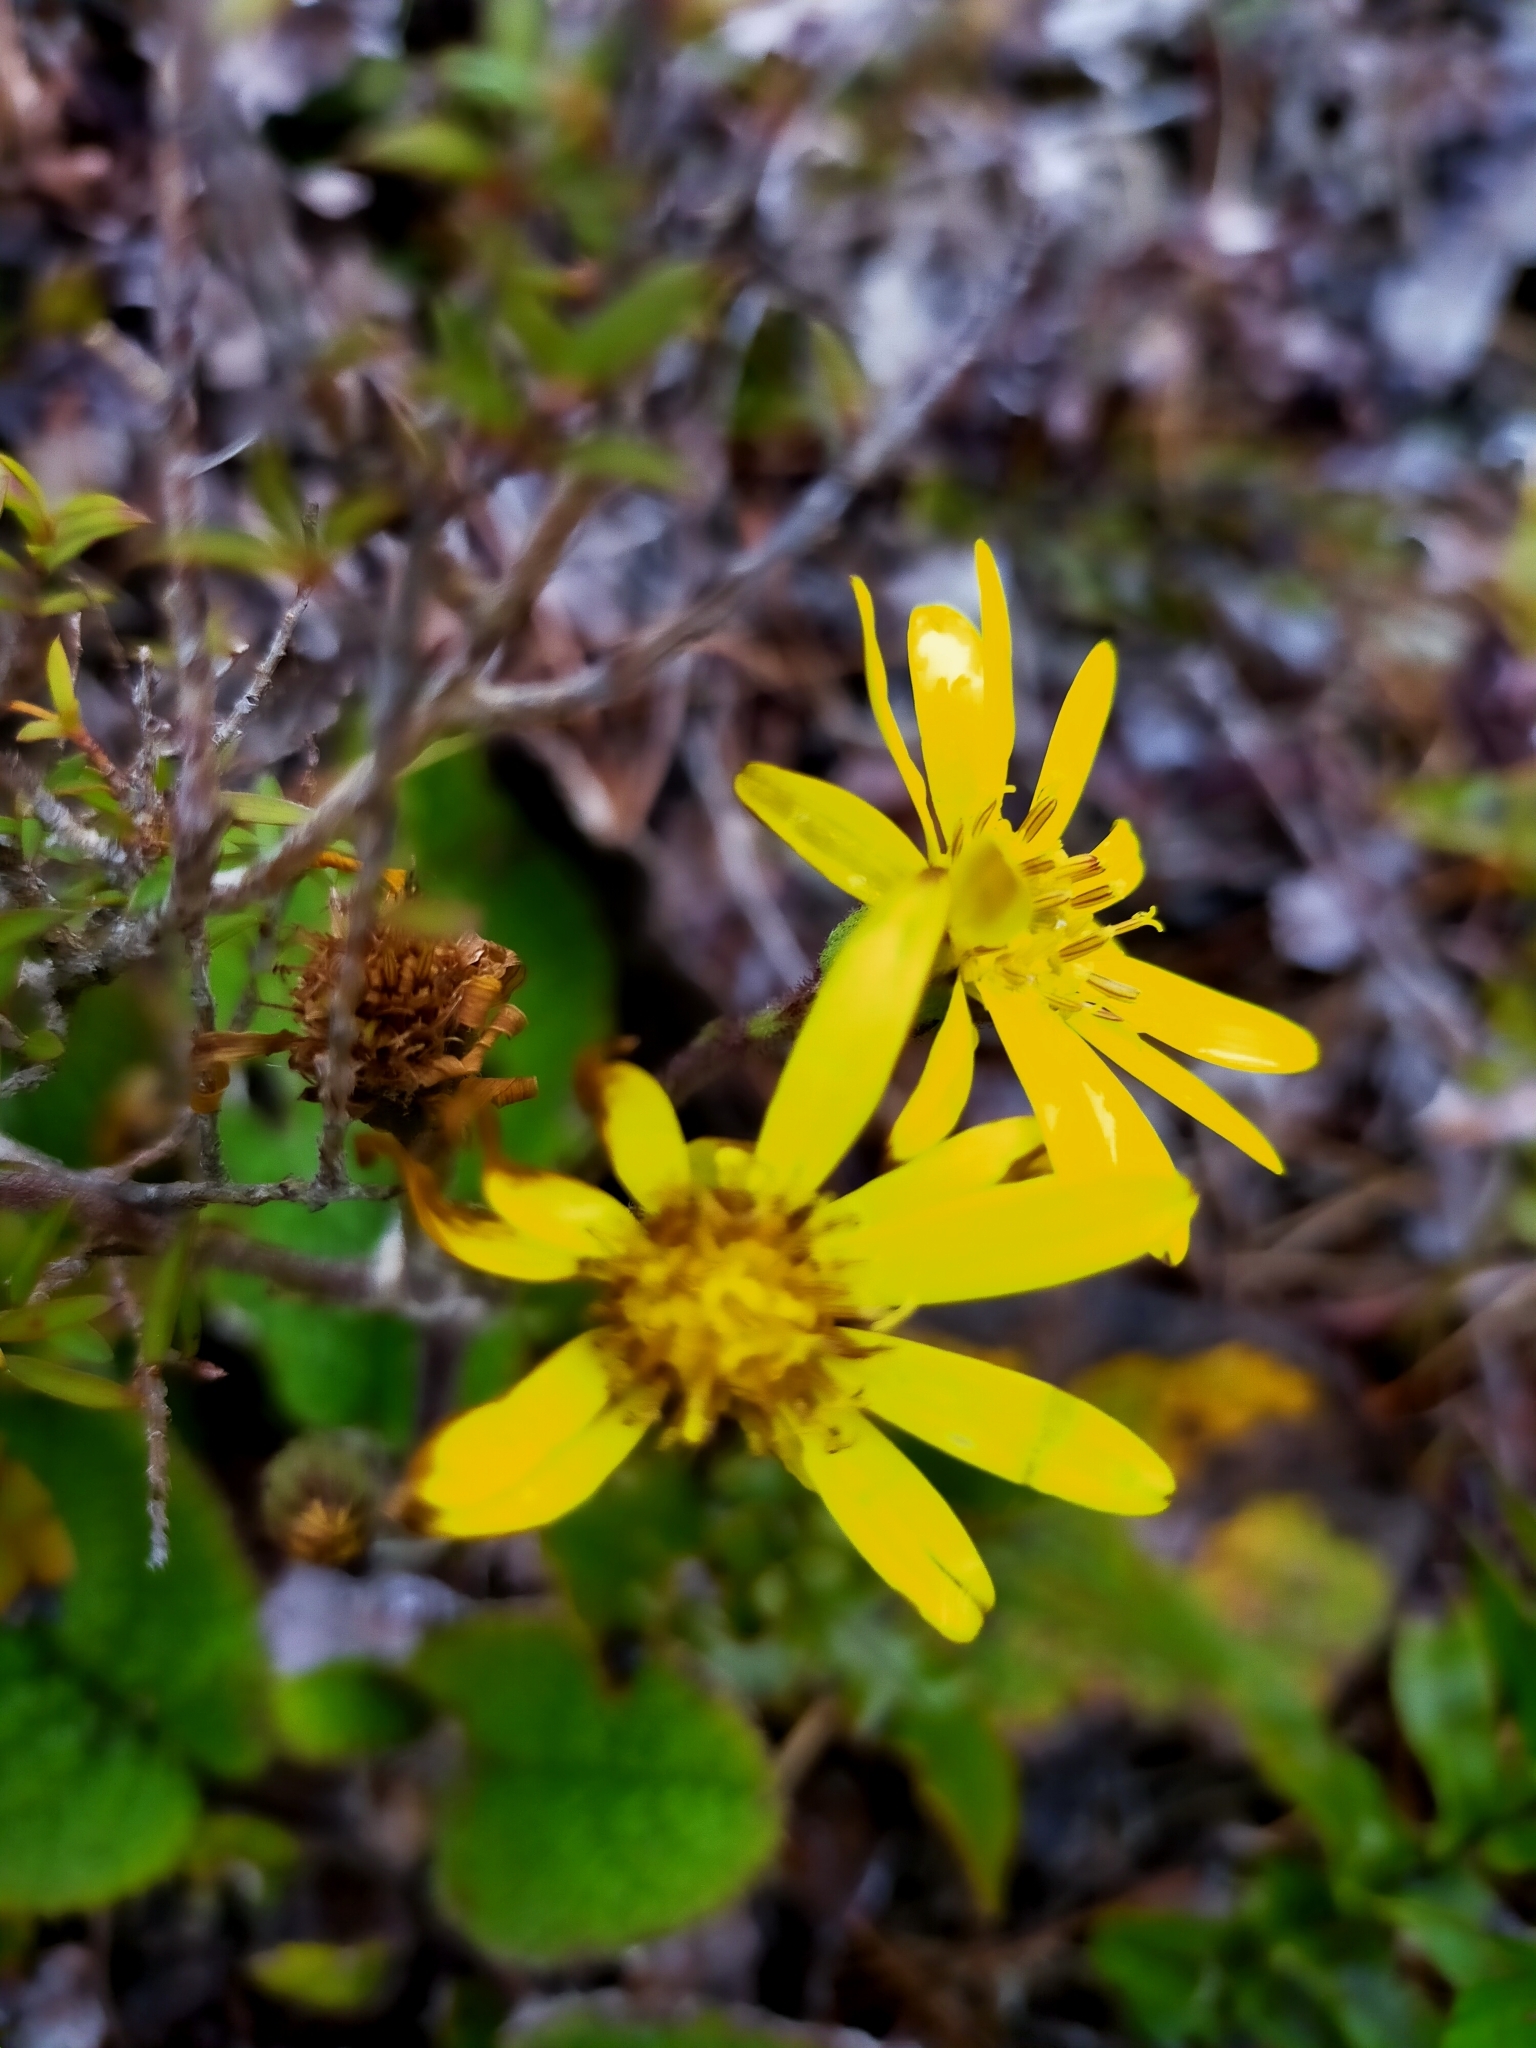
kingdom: Plantae
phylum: Tracheophyta
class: Magnoliopsida
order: Asterales
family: Asteraceae
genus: Brachyglottis
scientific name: Brachyglottis lagopus
